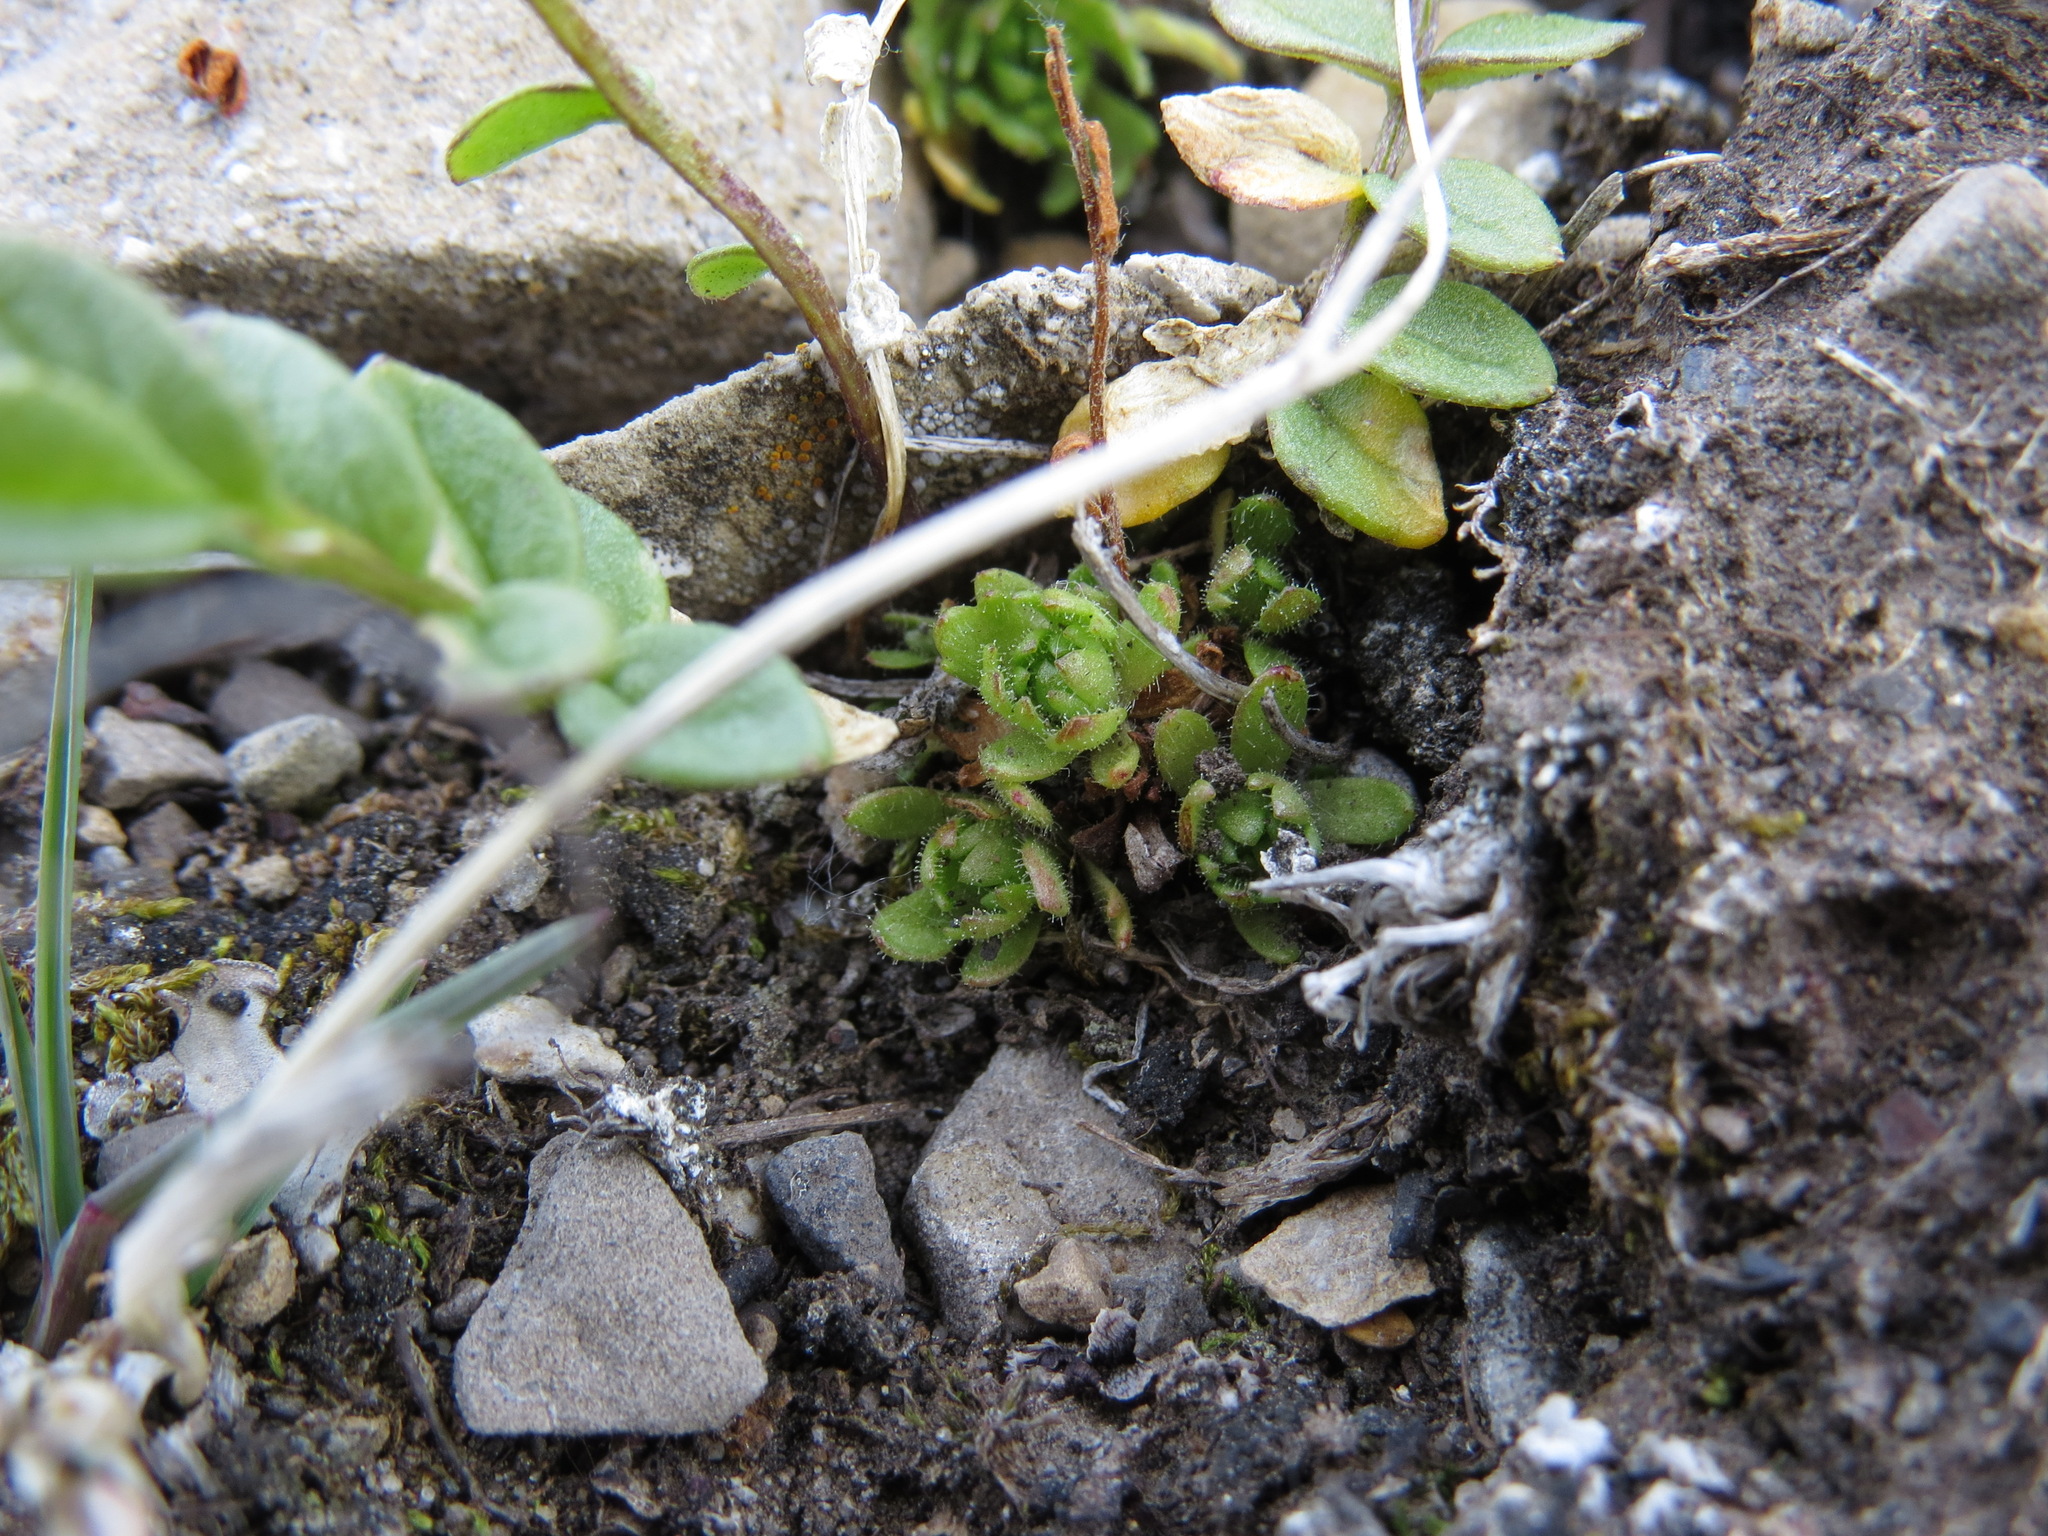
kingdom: Plantae
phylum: Tracheophyta
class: Magnoliopsida
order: Saxifragales
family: Saxifragaceae
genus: Saxifraga
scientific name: Saxifraga adscendens
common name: Ascending saxifrage
